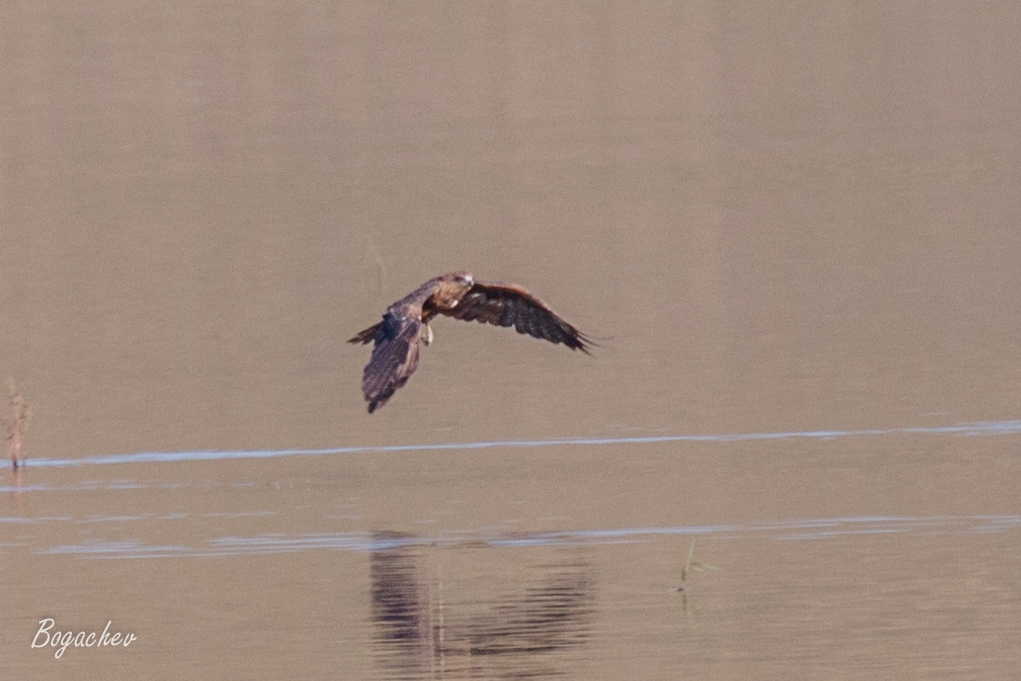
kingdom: Animalia
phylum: Chordata
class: Aves
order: Accipitriformes
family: Accipitridae
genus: Milvus
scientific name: Milvus migrans
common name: Black kite
